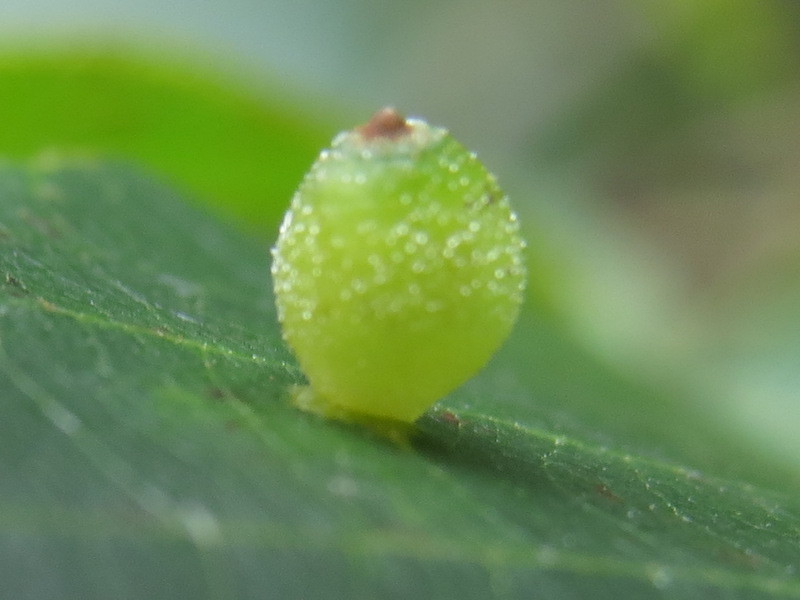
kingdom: Animalia
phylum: Arthropoda
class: Insecta
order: Diptera
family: Cecidomyiidae
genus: Caryomyia
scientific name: Caryomyia viscidolium
